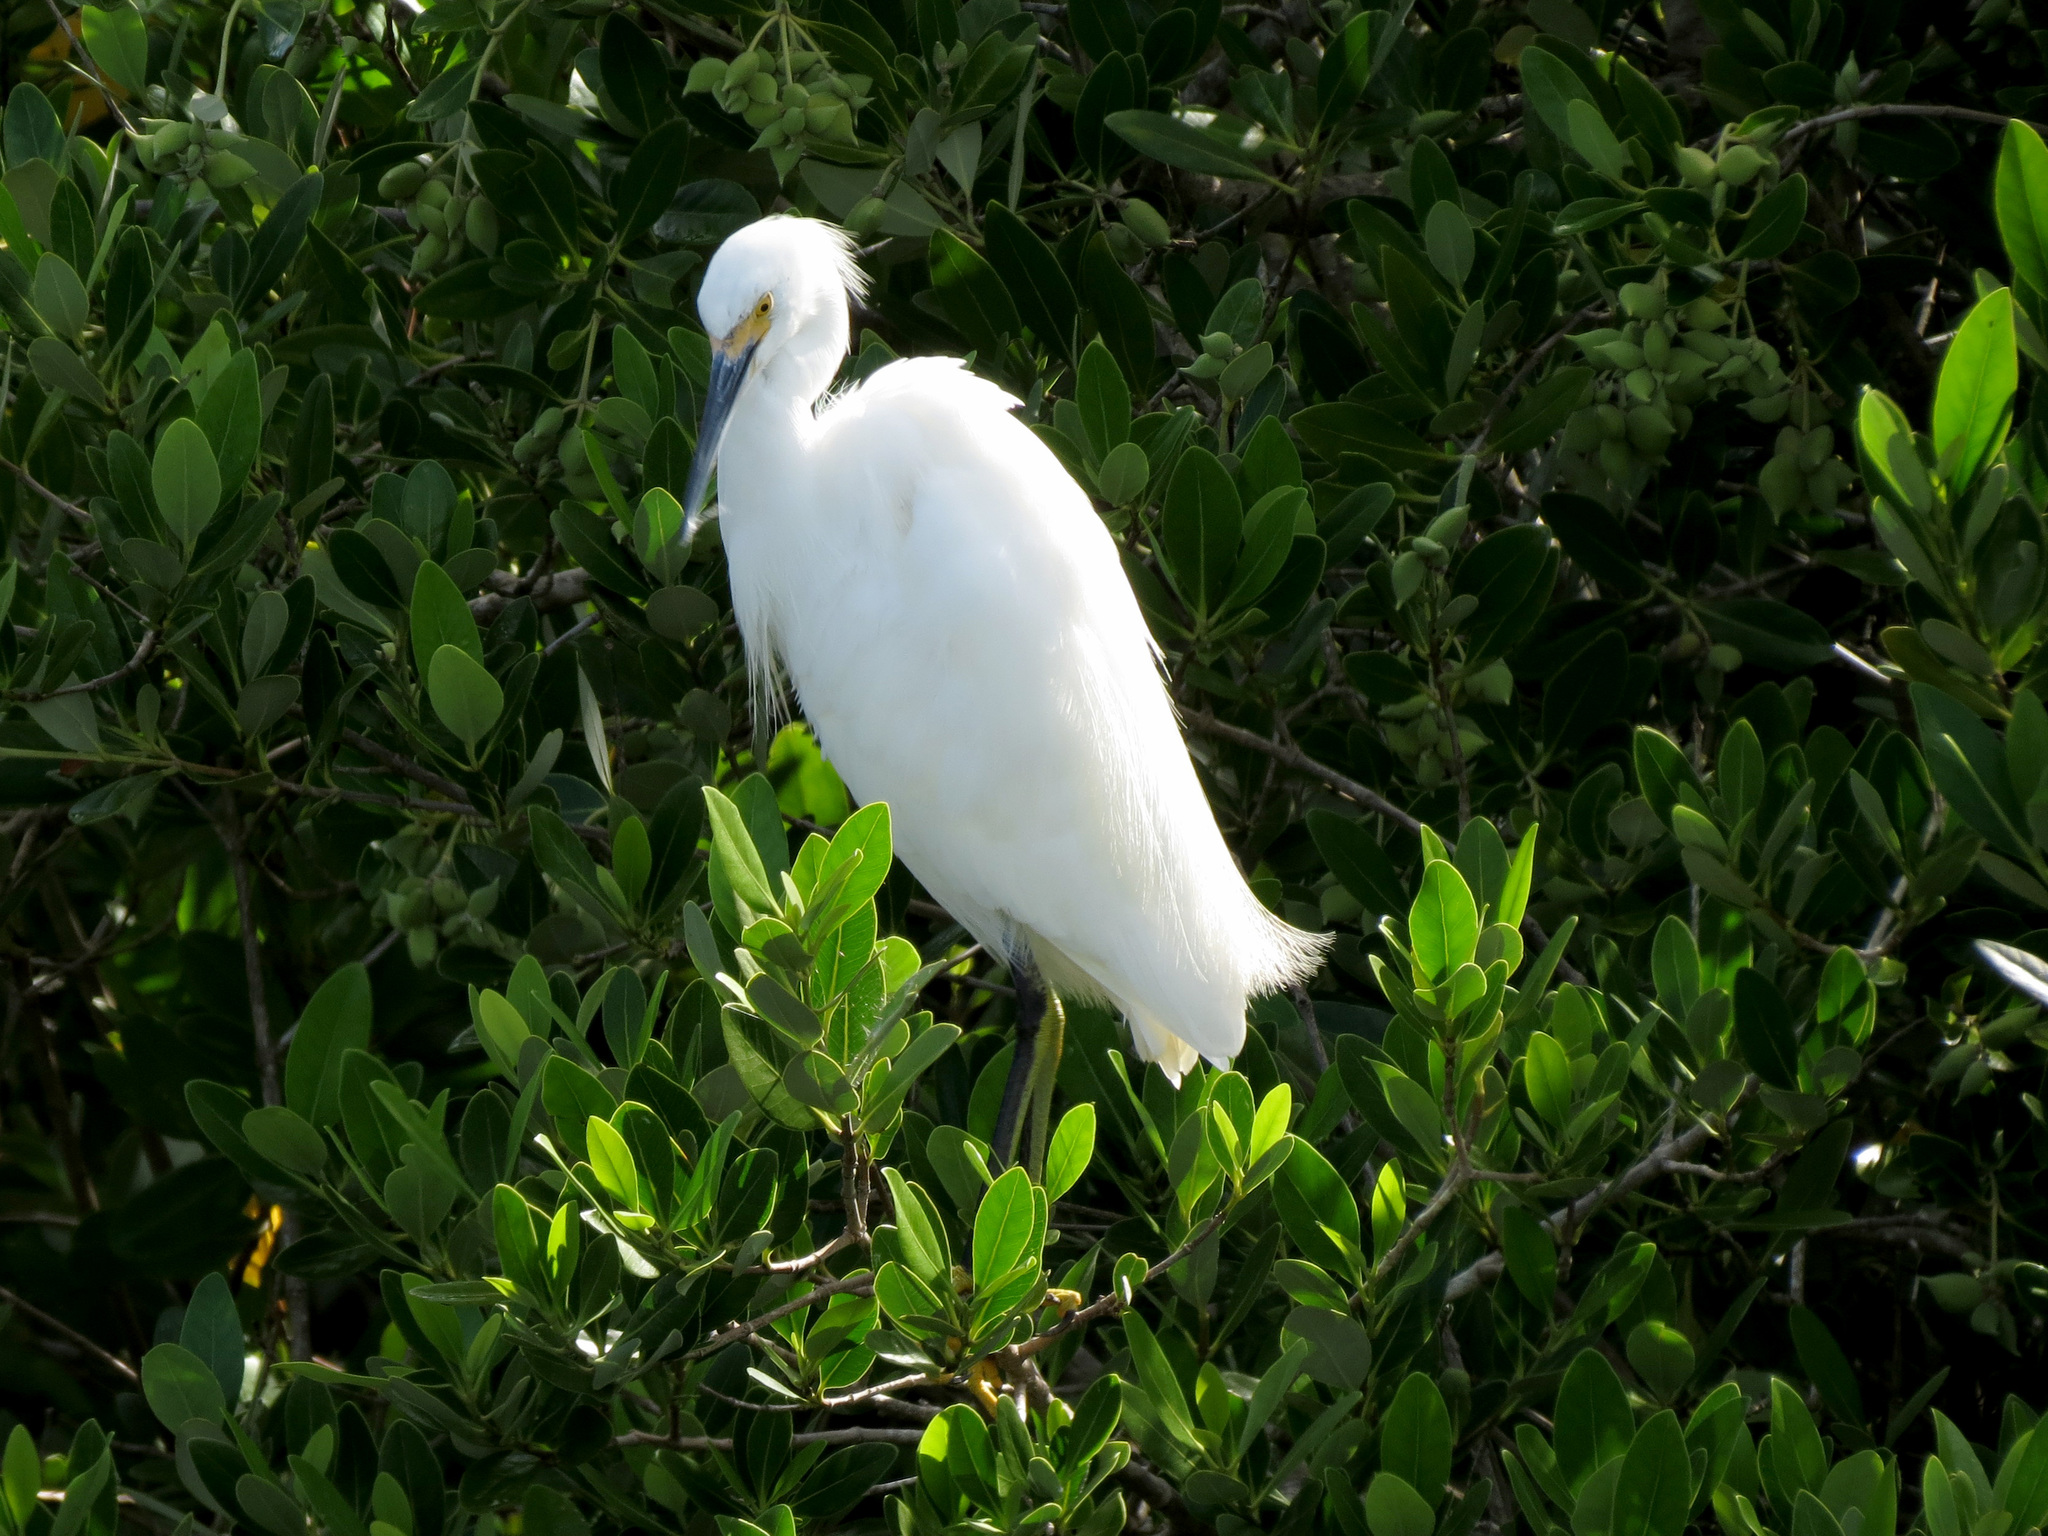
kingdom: Animalia
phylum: Chordata
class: Aves
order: Pelecaniformes
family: Ardeidae
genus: Egretta
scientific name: Egretta thula
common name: Snowy egret
